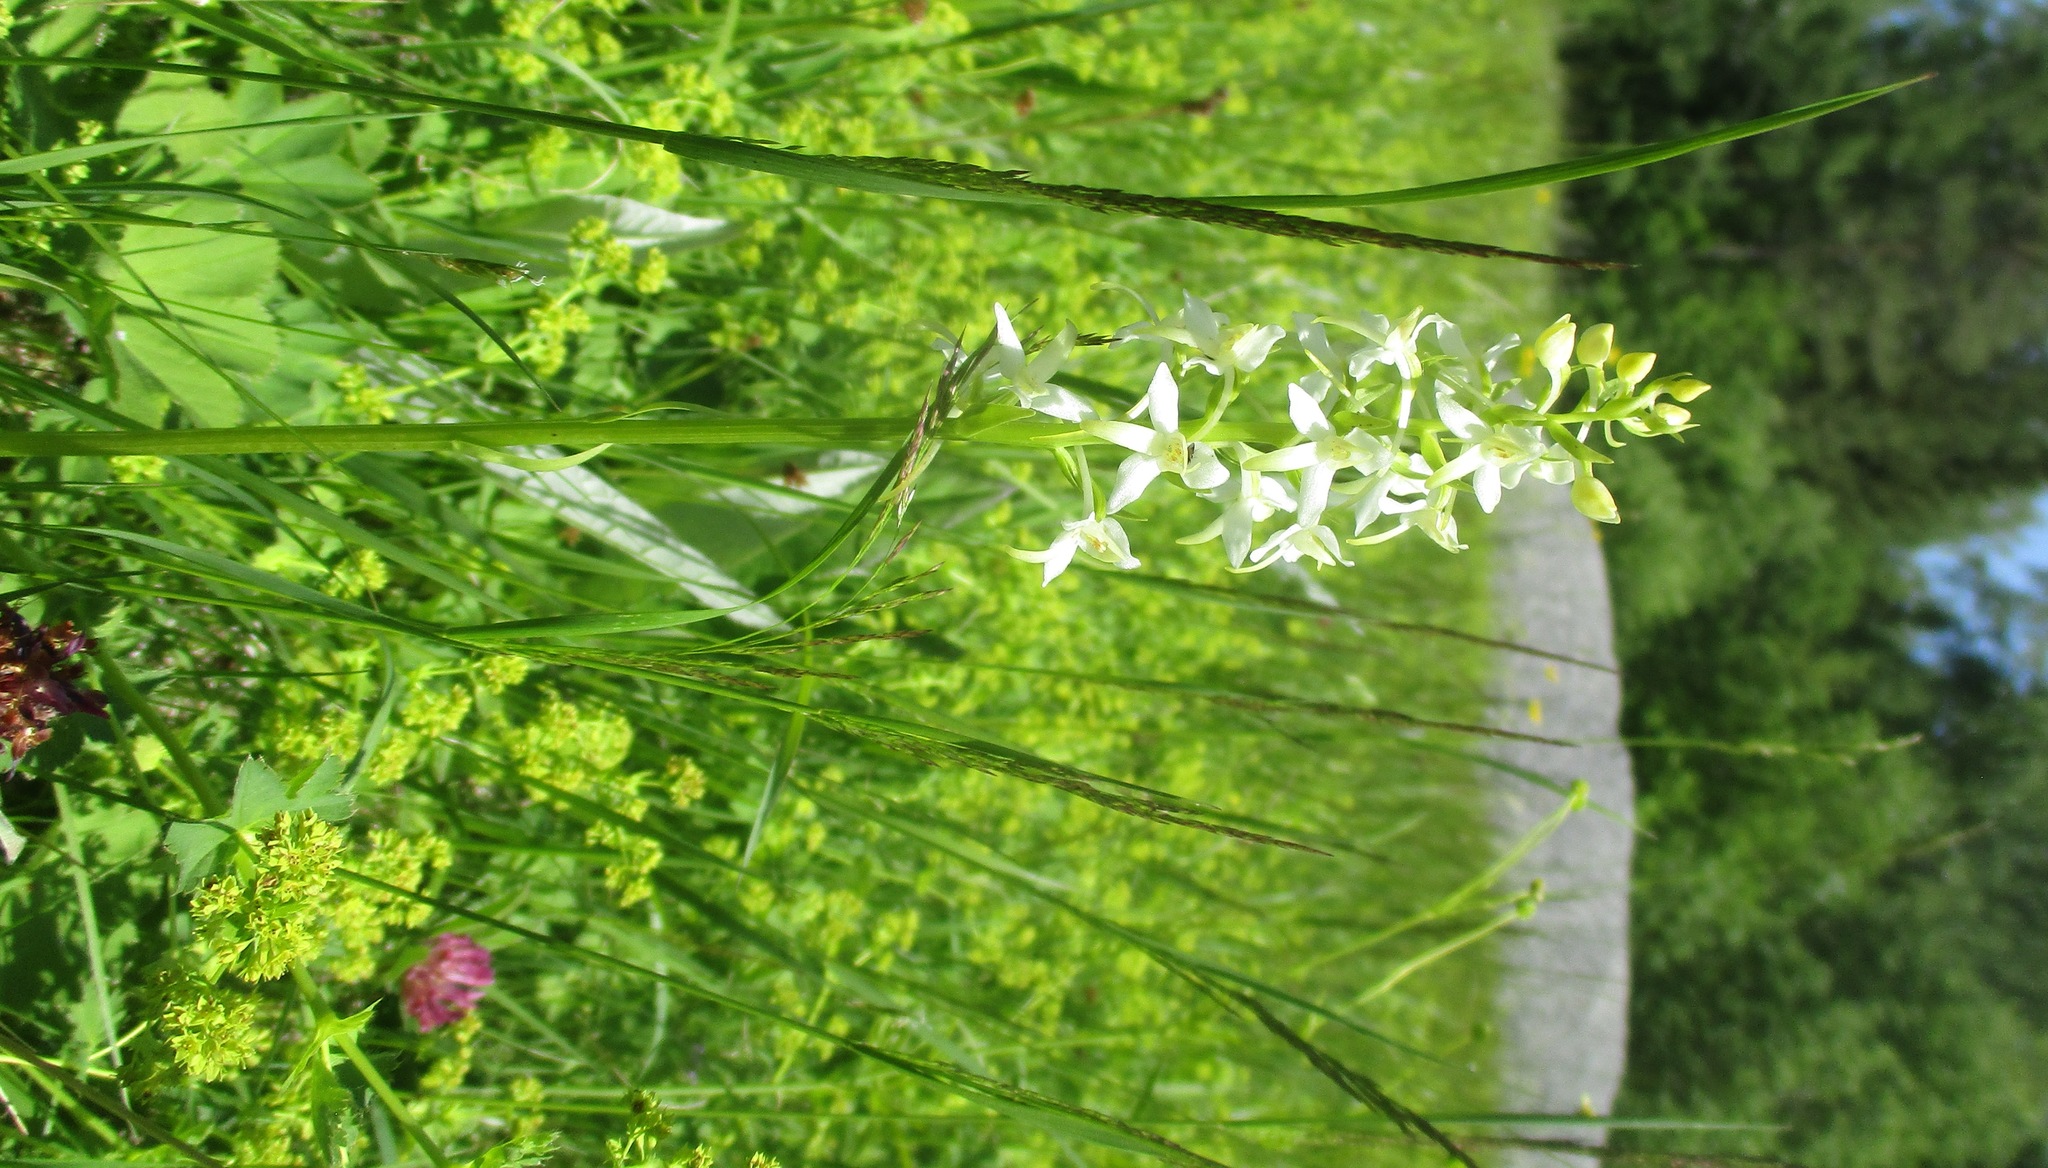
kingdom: Plantae
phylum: Tracheophyta
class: Liliopsida
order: Asparagales
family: Orchidaceae
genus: Platanthera
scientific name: Platanthera bifolia
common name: Lesser butterfly-orchid
